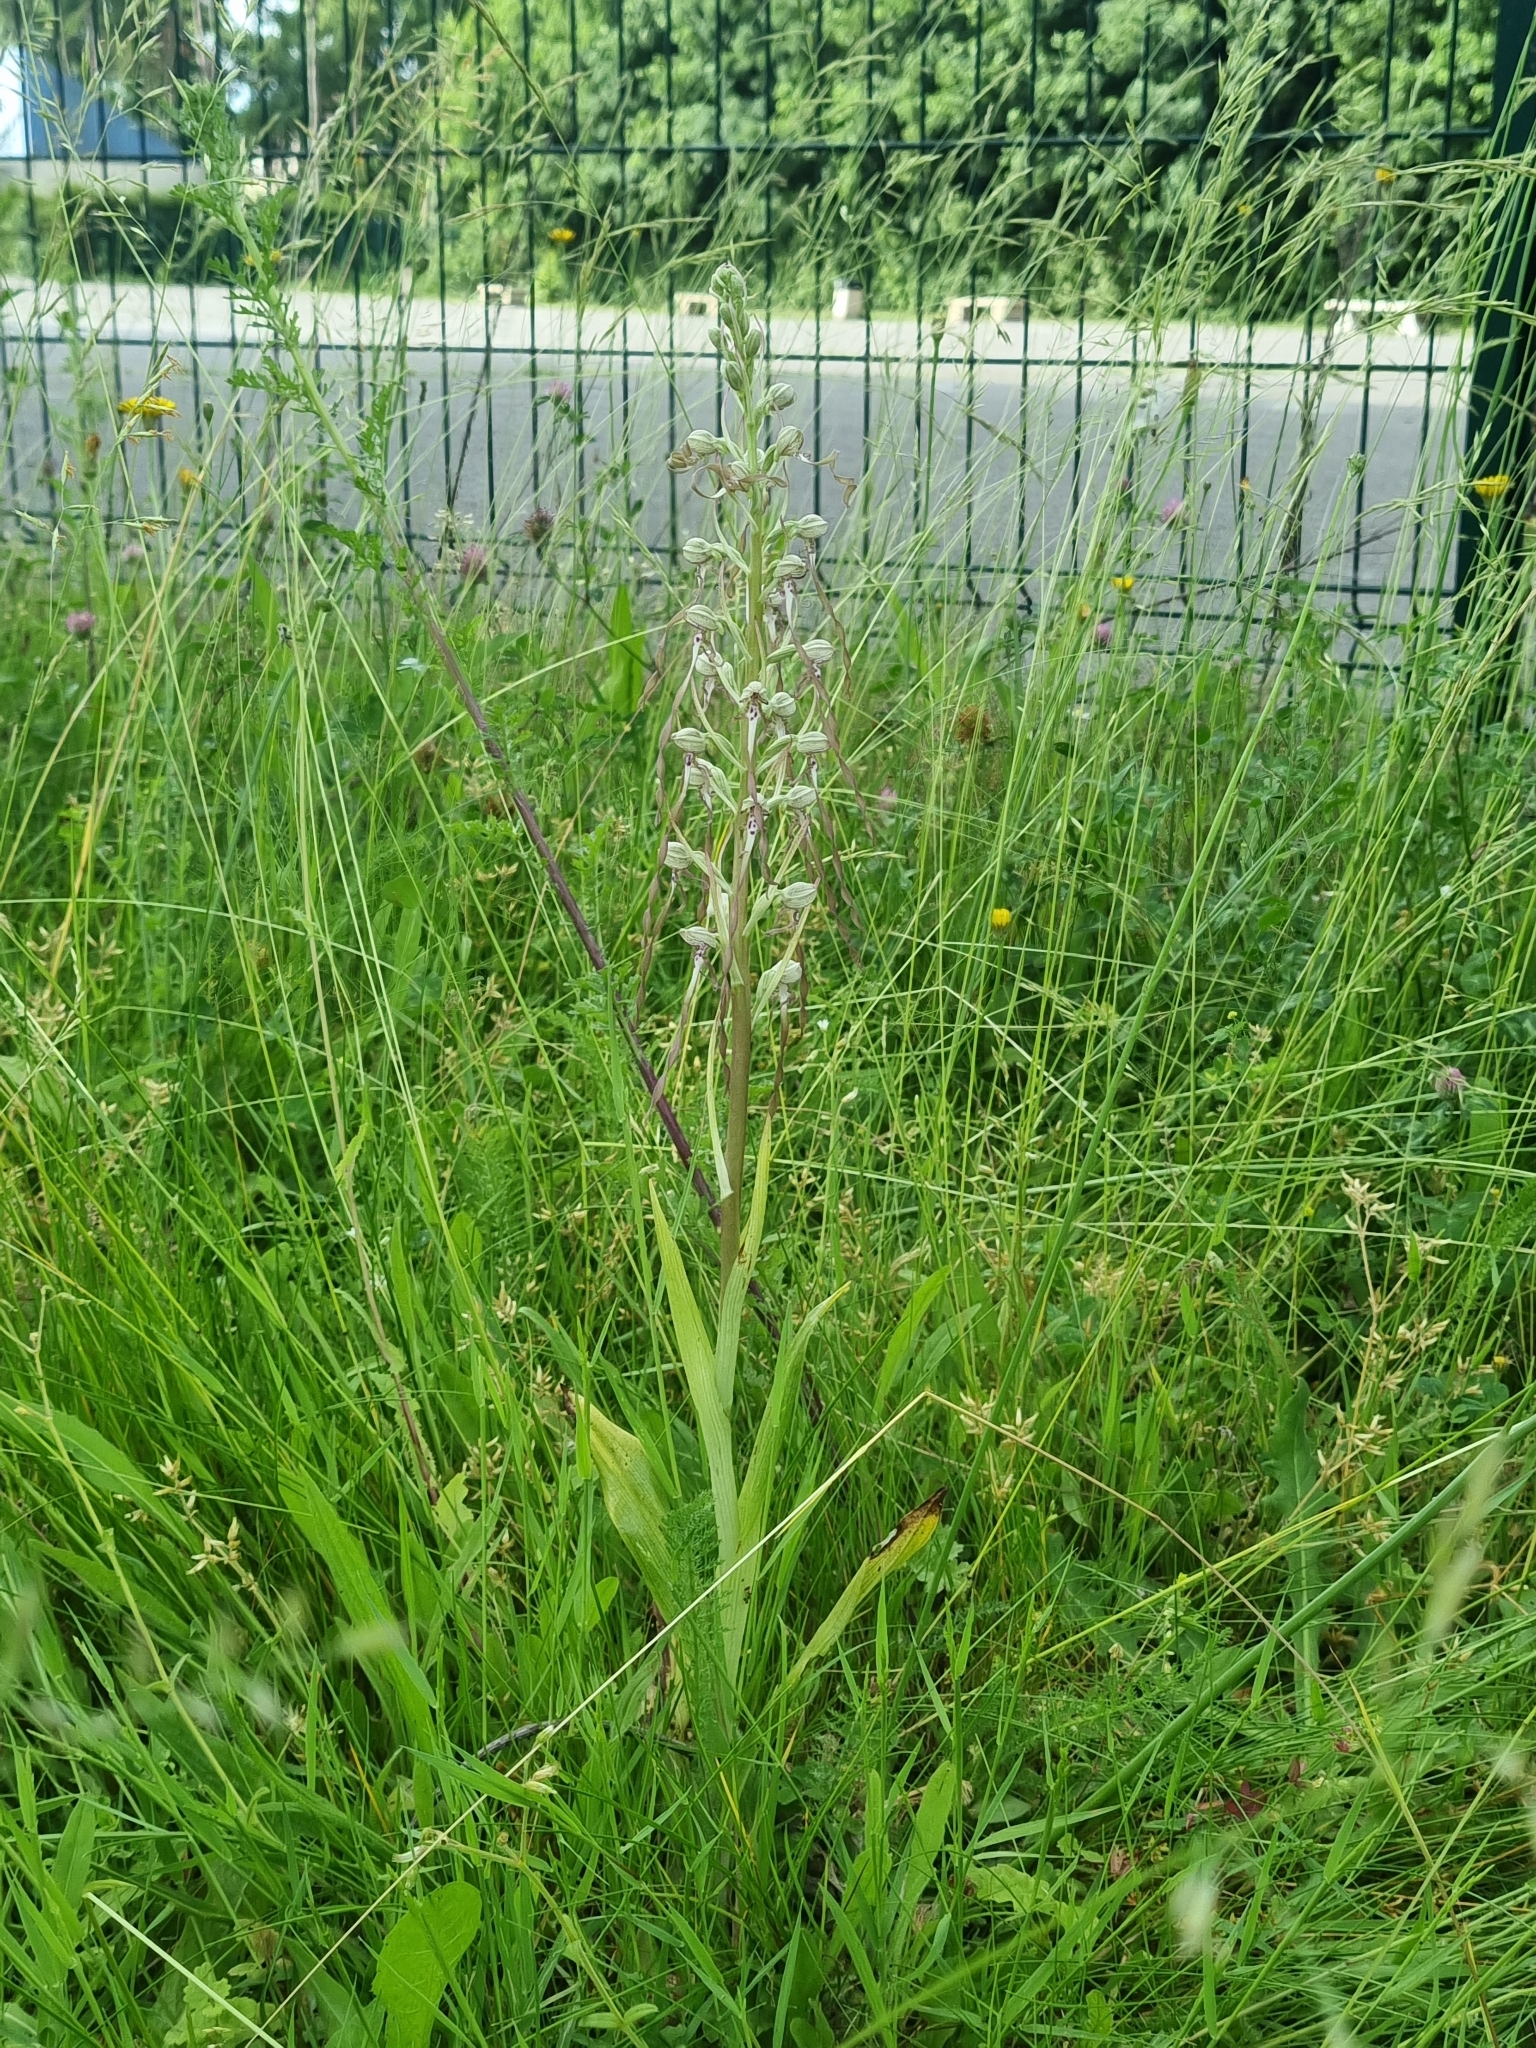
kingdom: Plantae
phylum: Tracheophyta
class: Liliopsida
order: Asparagales
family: Orchidaceae
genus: Himantoglossum
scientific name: Himantoglossum hircinum
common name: Lizard orchid
